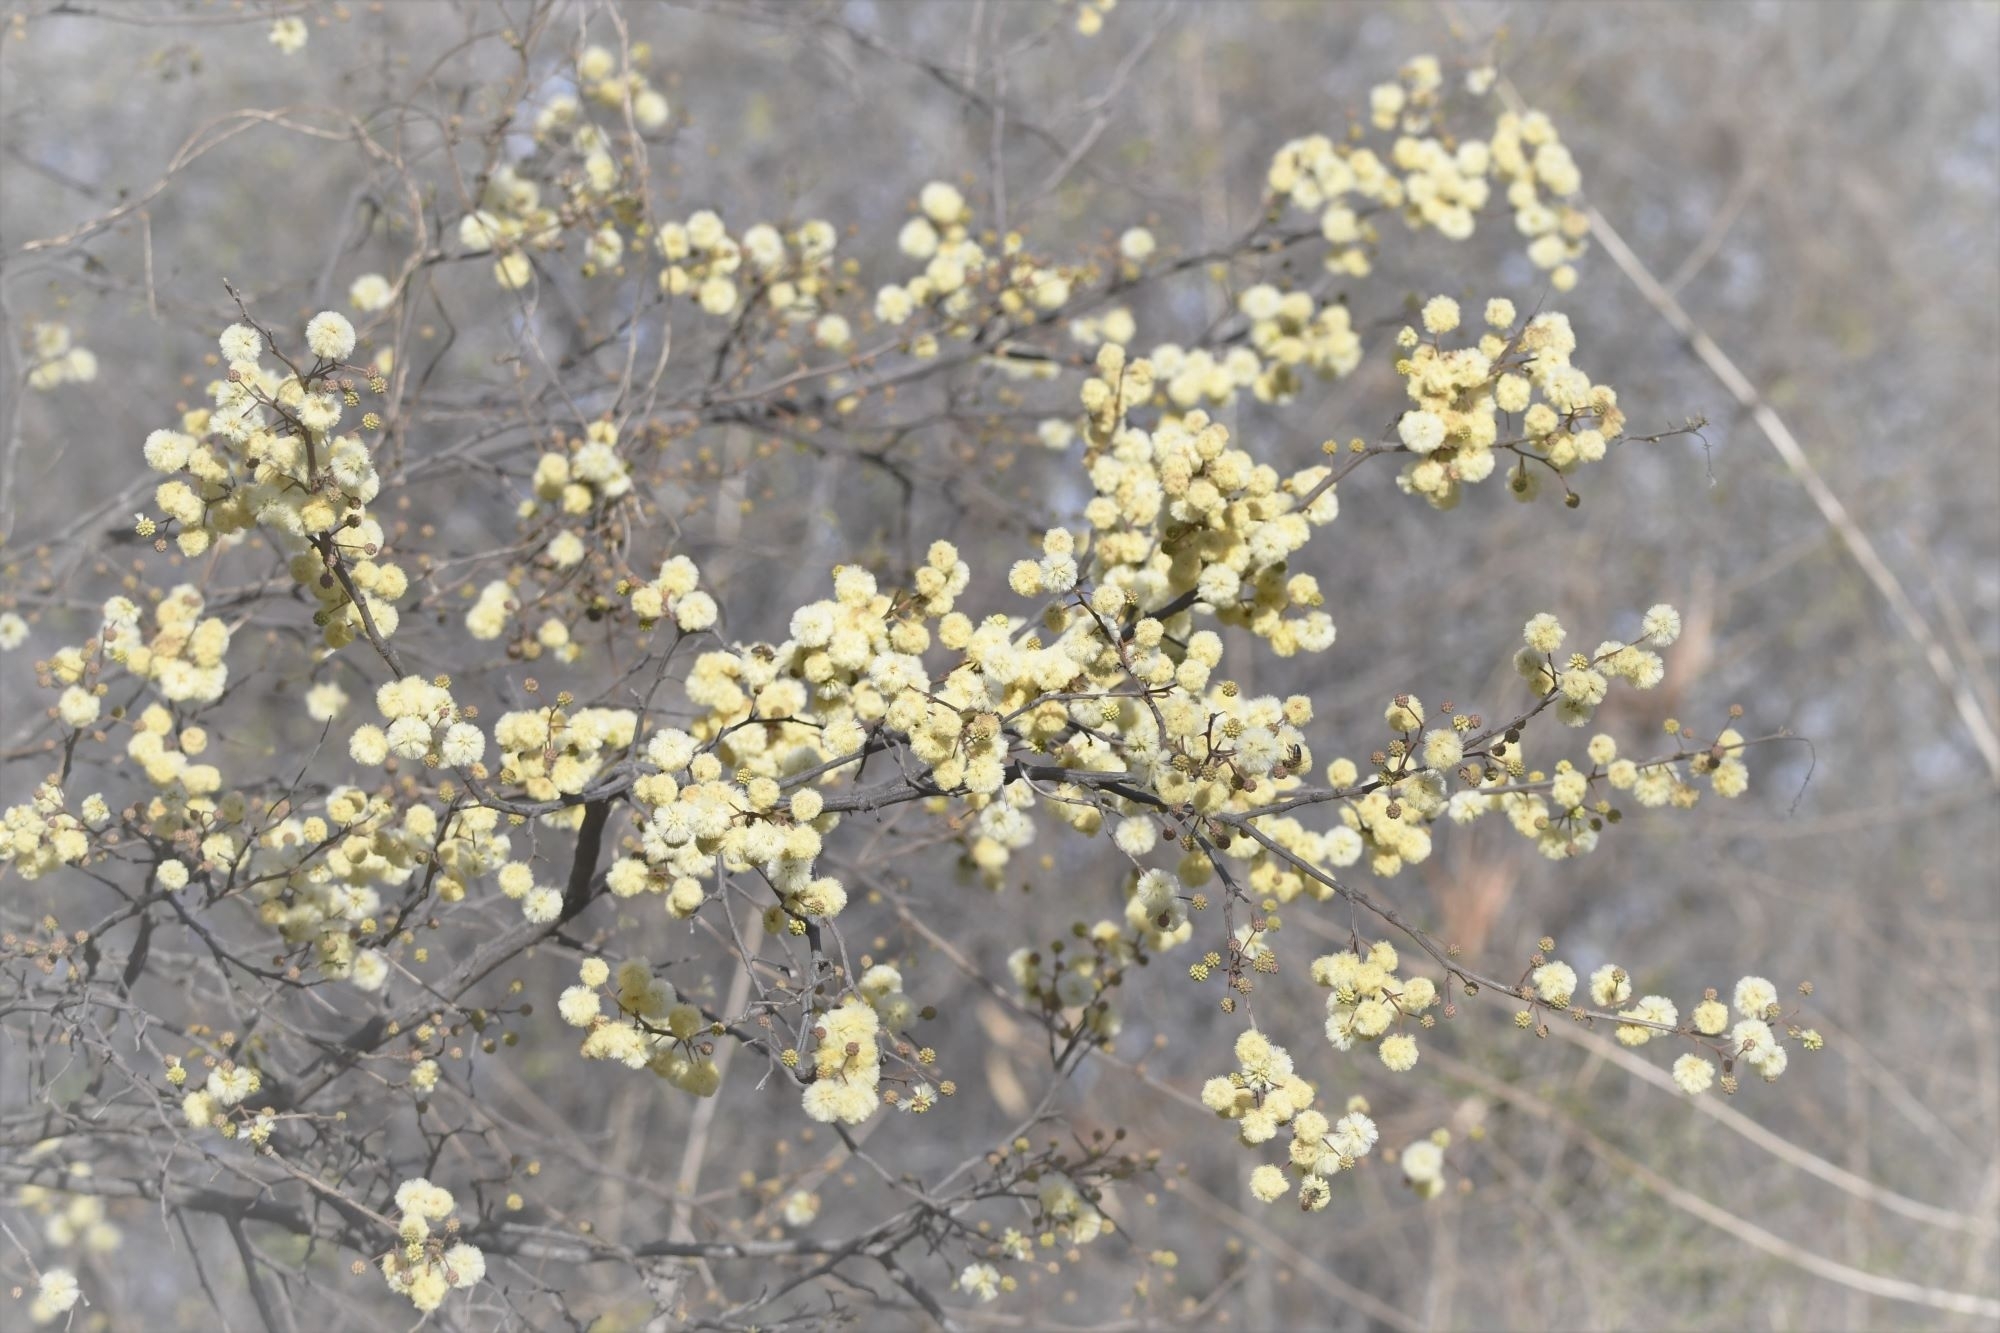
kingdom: Plantae
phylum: Tracheophyta
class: Magnoliopsida
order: Fabales
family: Fabaceae
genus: Senegalia
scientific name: Senegalia praecox
